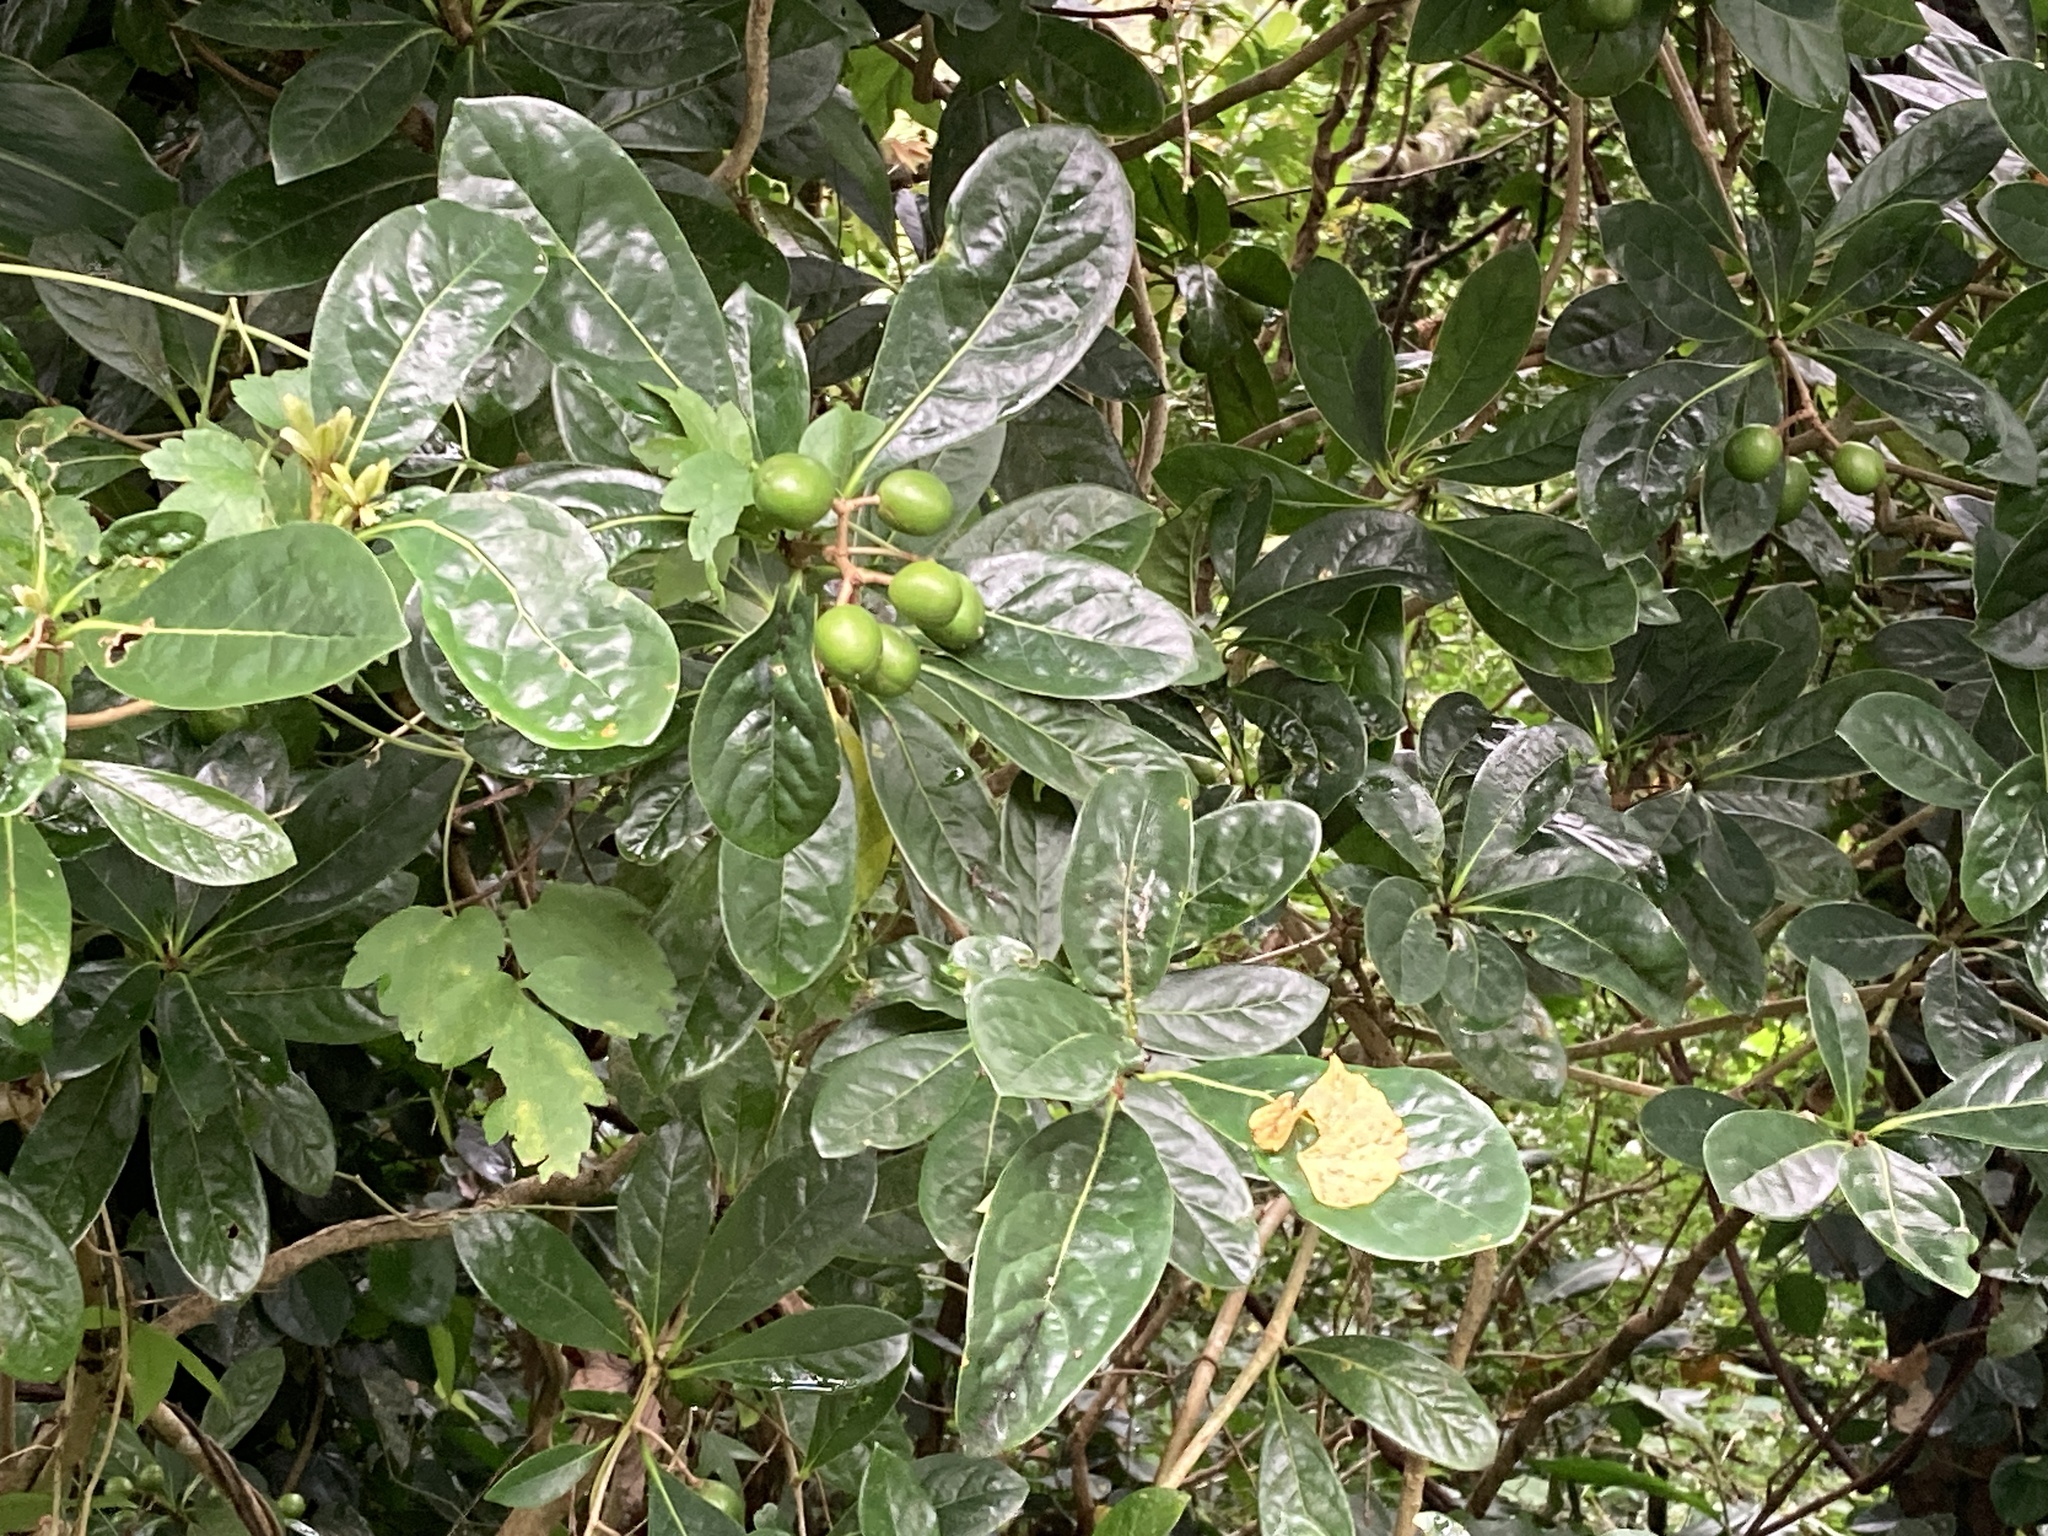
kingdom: Plantae
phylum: Tracheophyta
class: Magnoliopsida
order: Apiales
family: Pittosporaceae
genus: Pittosporum
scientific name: Pittosporum moluccanum
